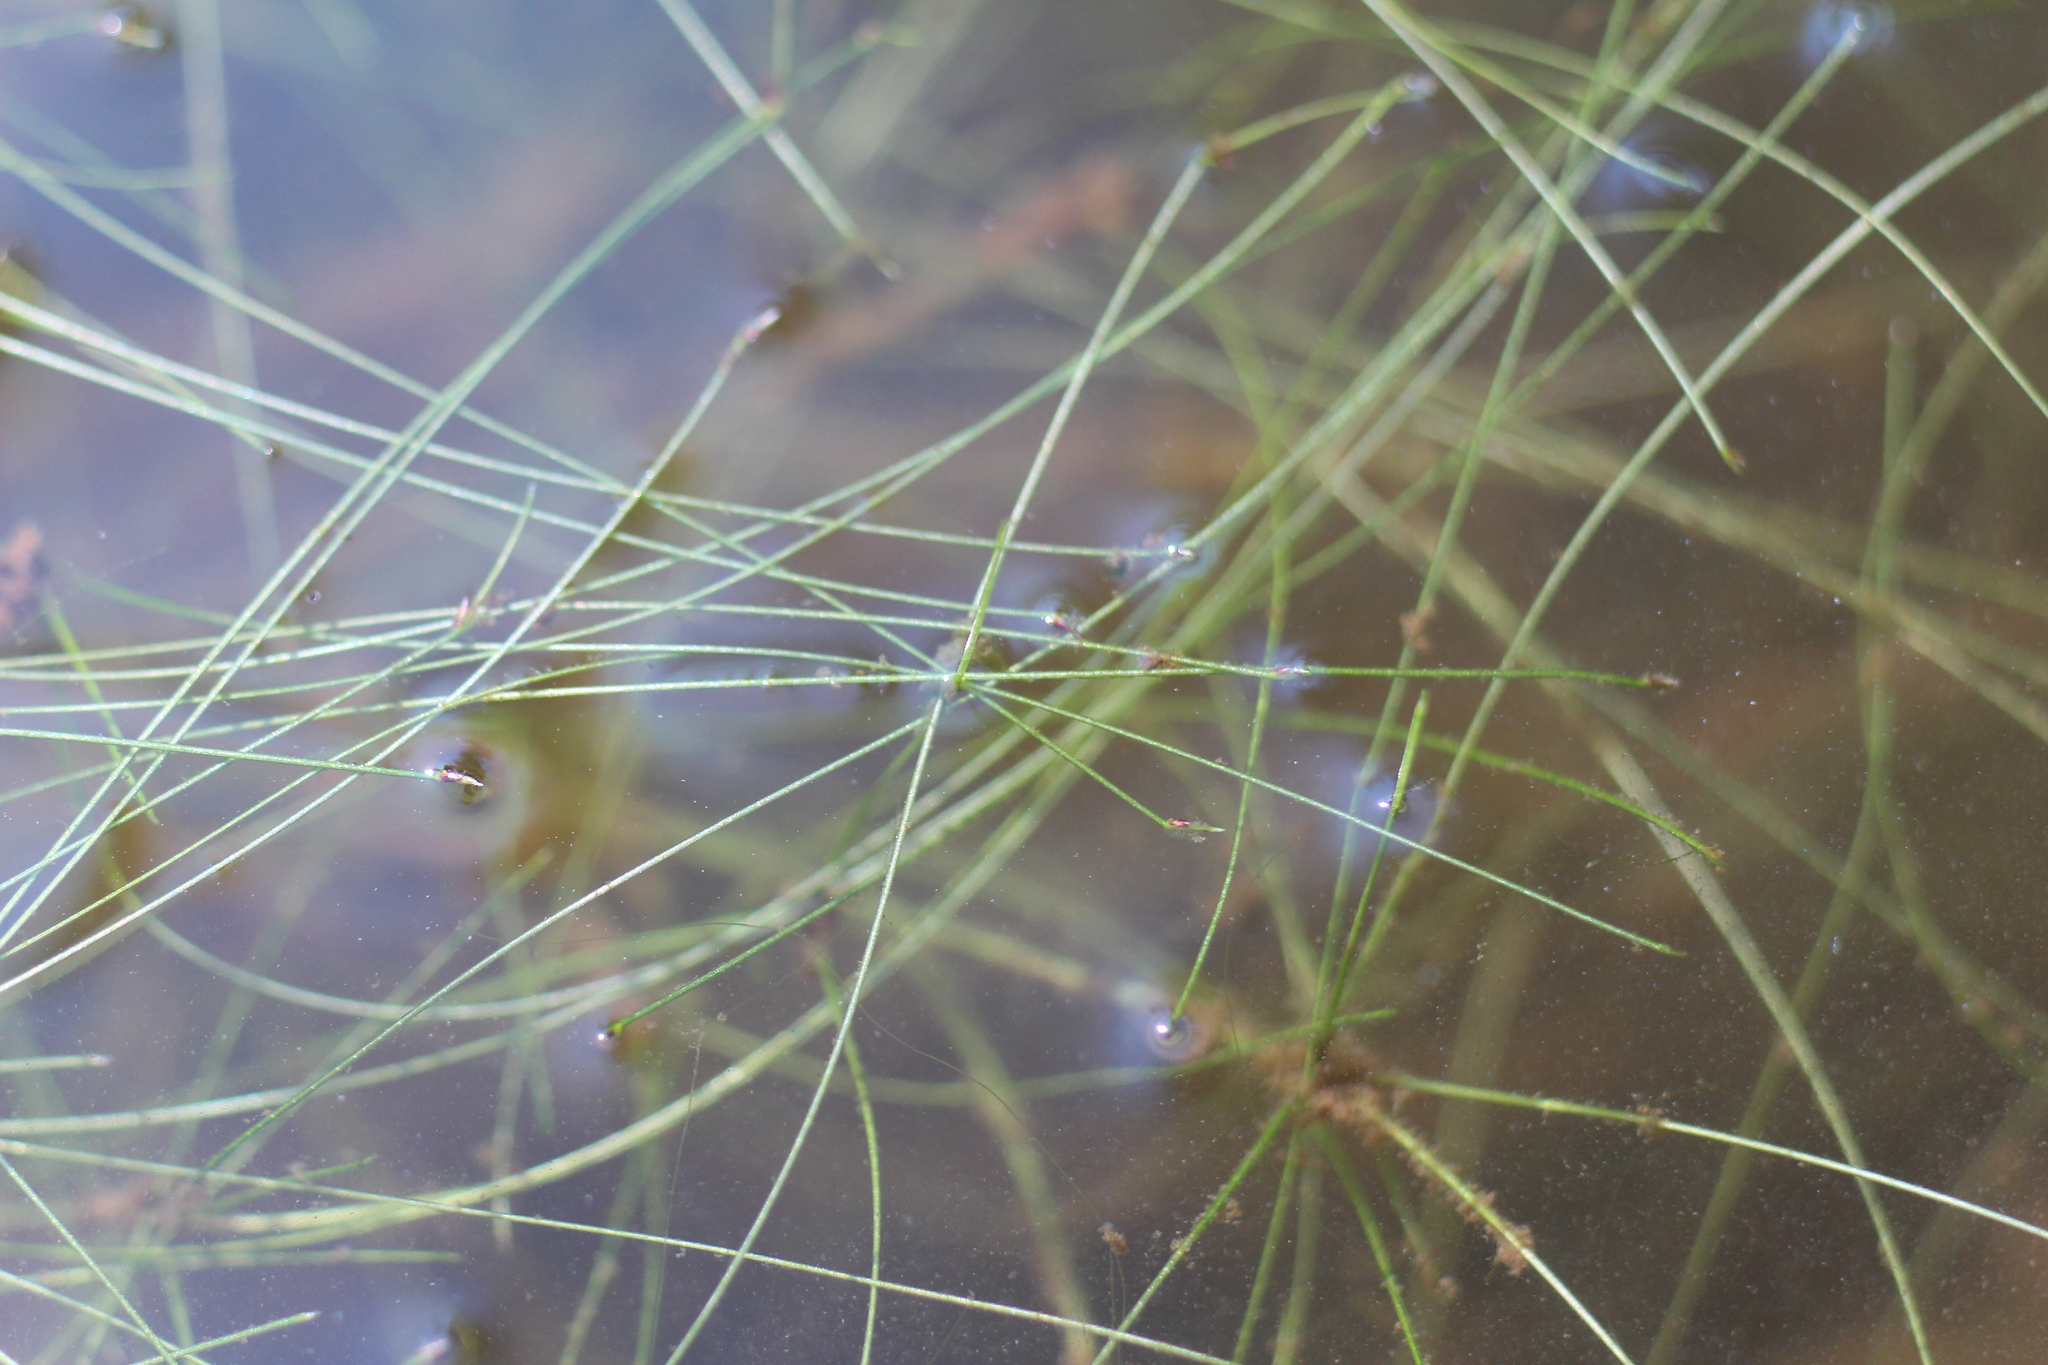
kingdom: Plantae
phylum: Tracheophyta
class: Liliopsida
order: Poales
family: Cyperaceae
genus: Eleocharis
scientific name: Eleocharis vivipara
